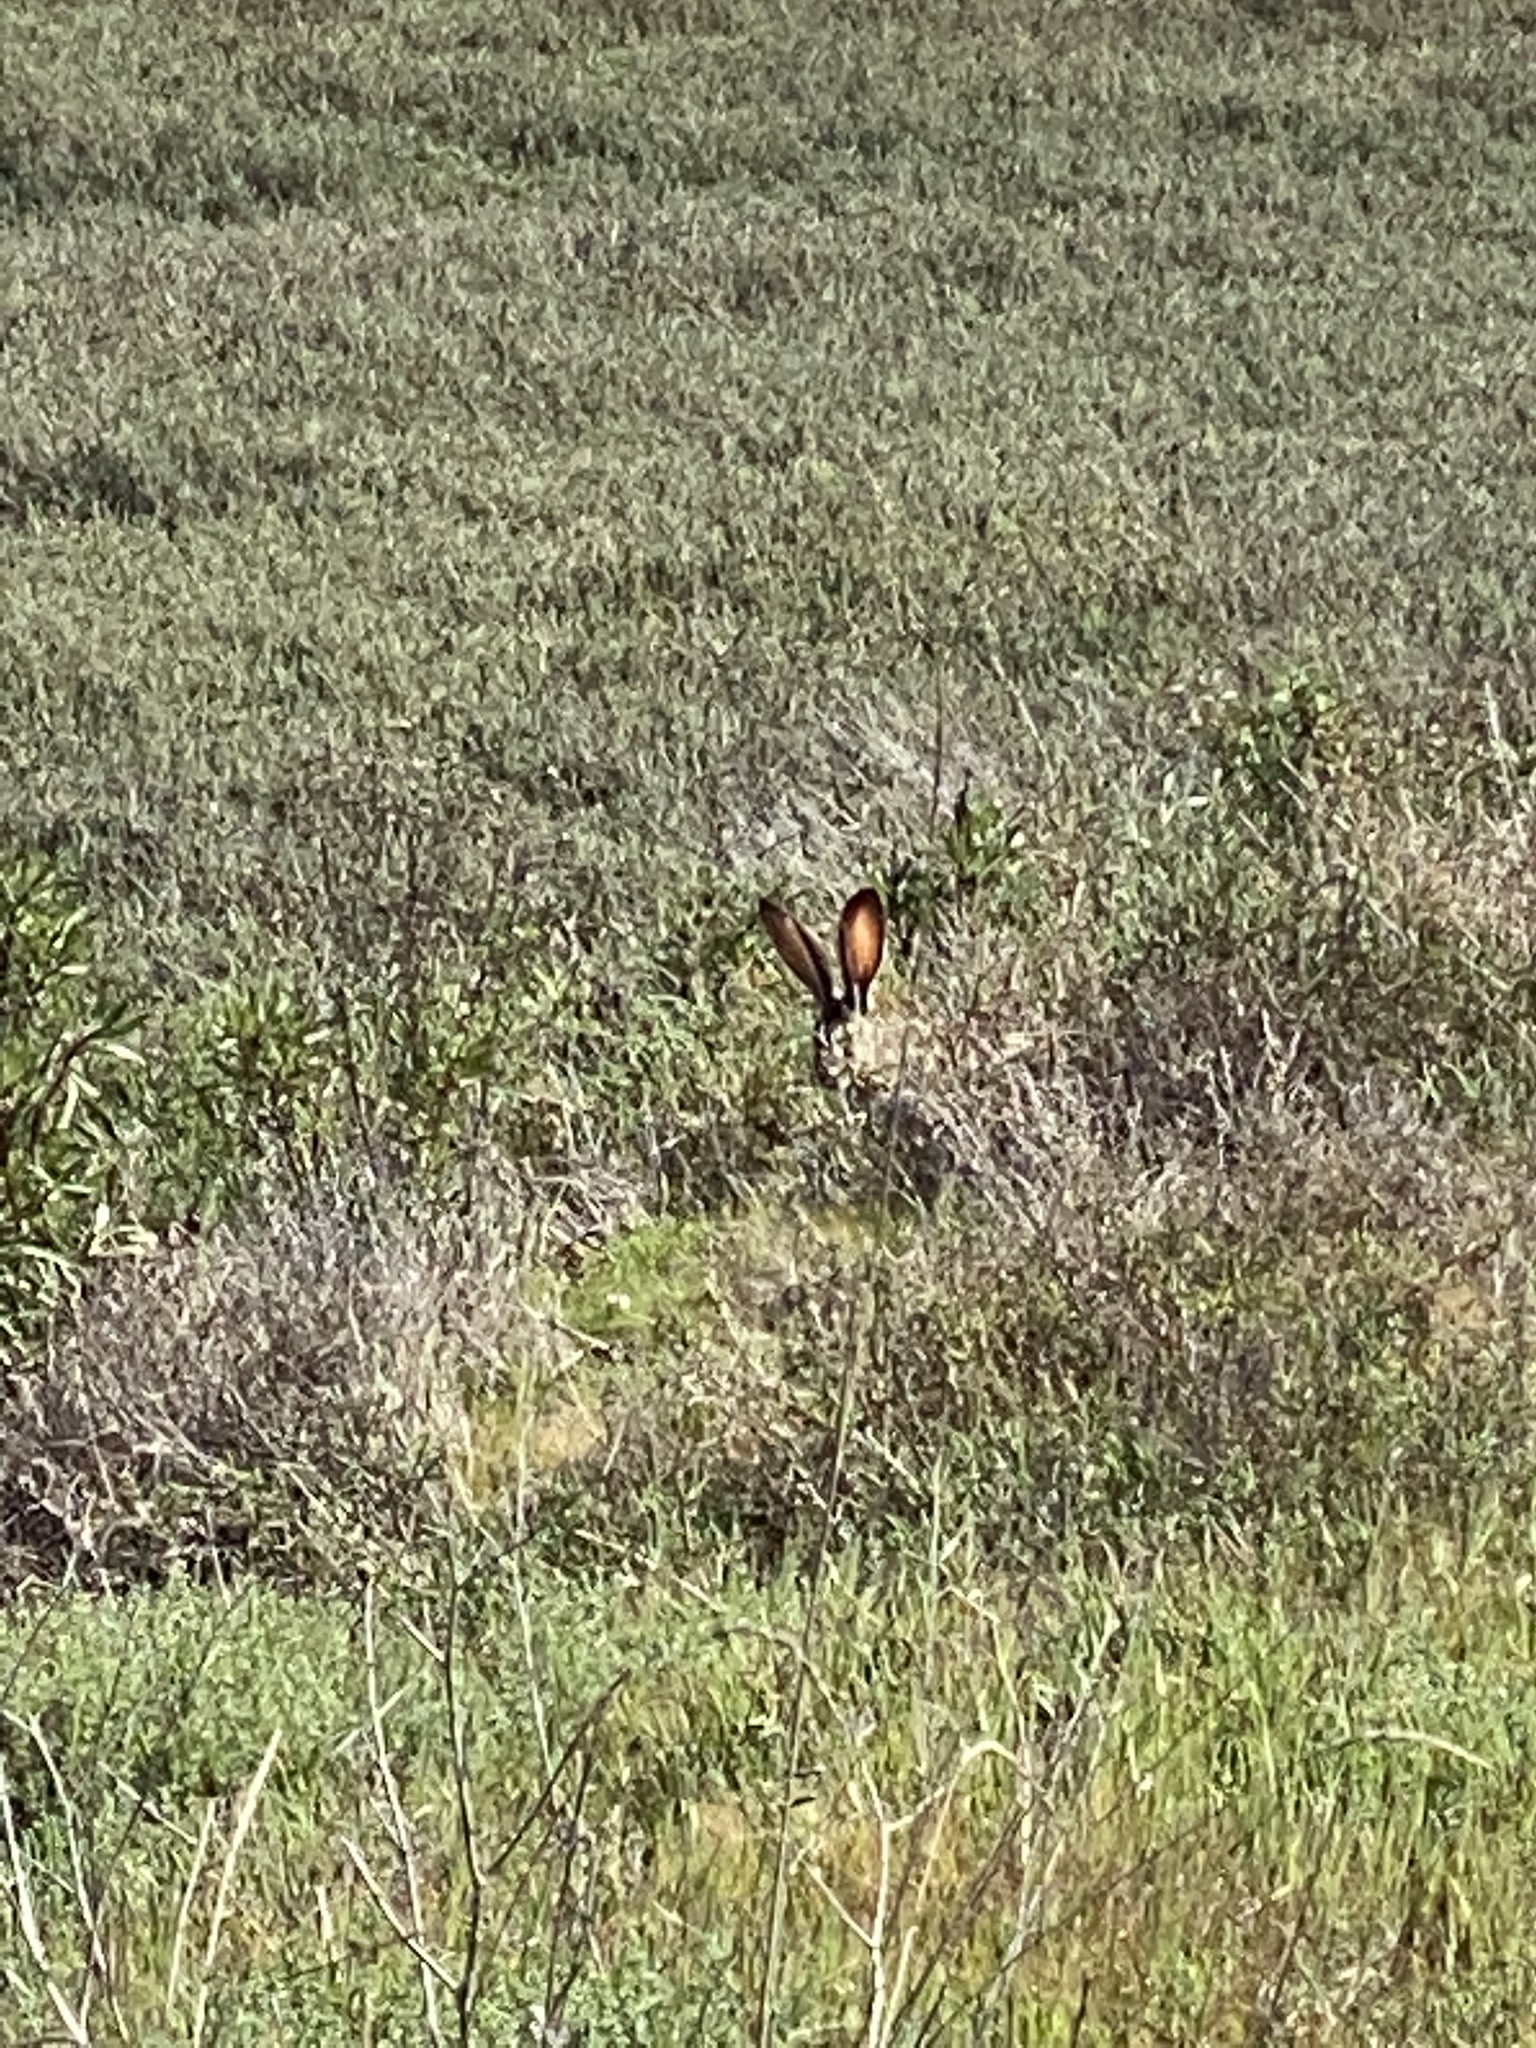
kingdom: Animalia
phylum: Chordata
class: Mammalia
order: Lagomorpha
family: Leporidae
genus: Lepus
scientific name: Lepus californicus
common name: Black-tailed jackrabbit
